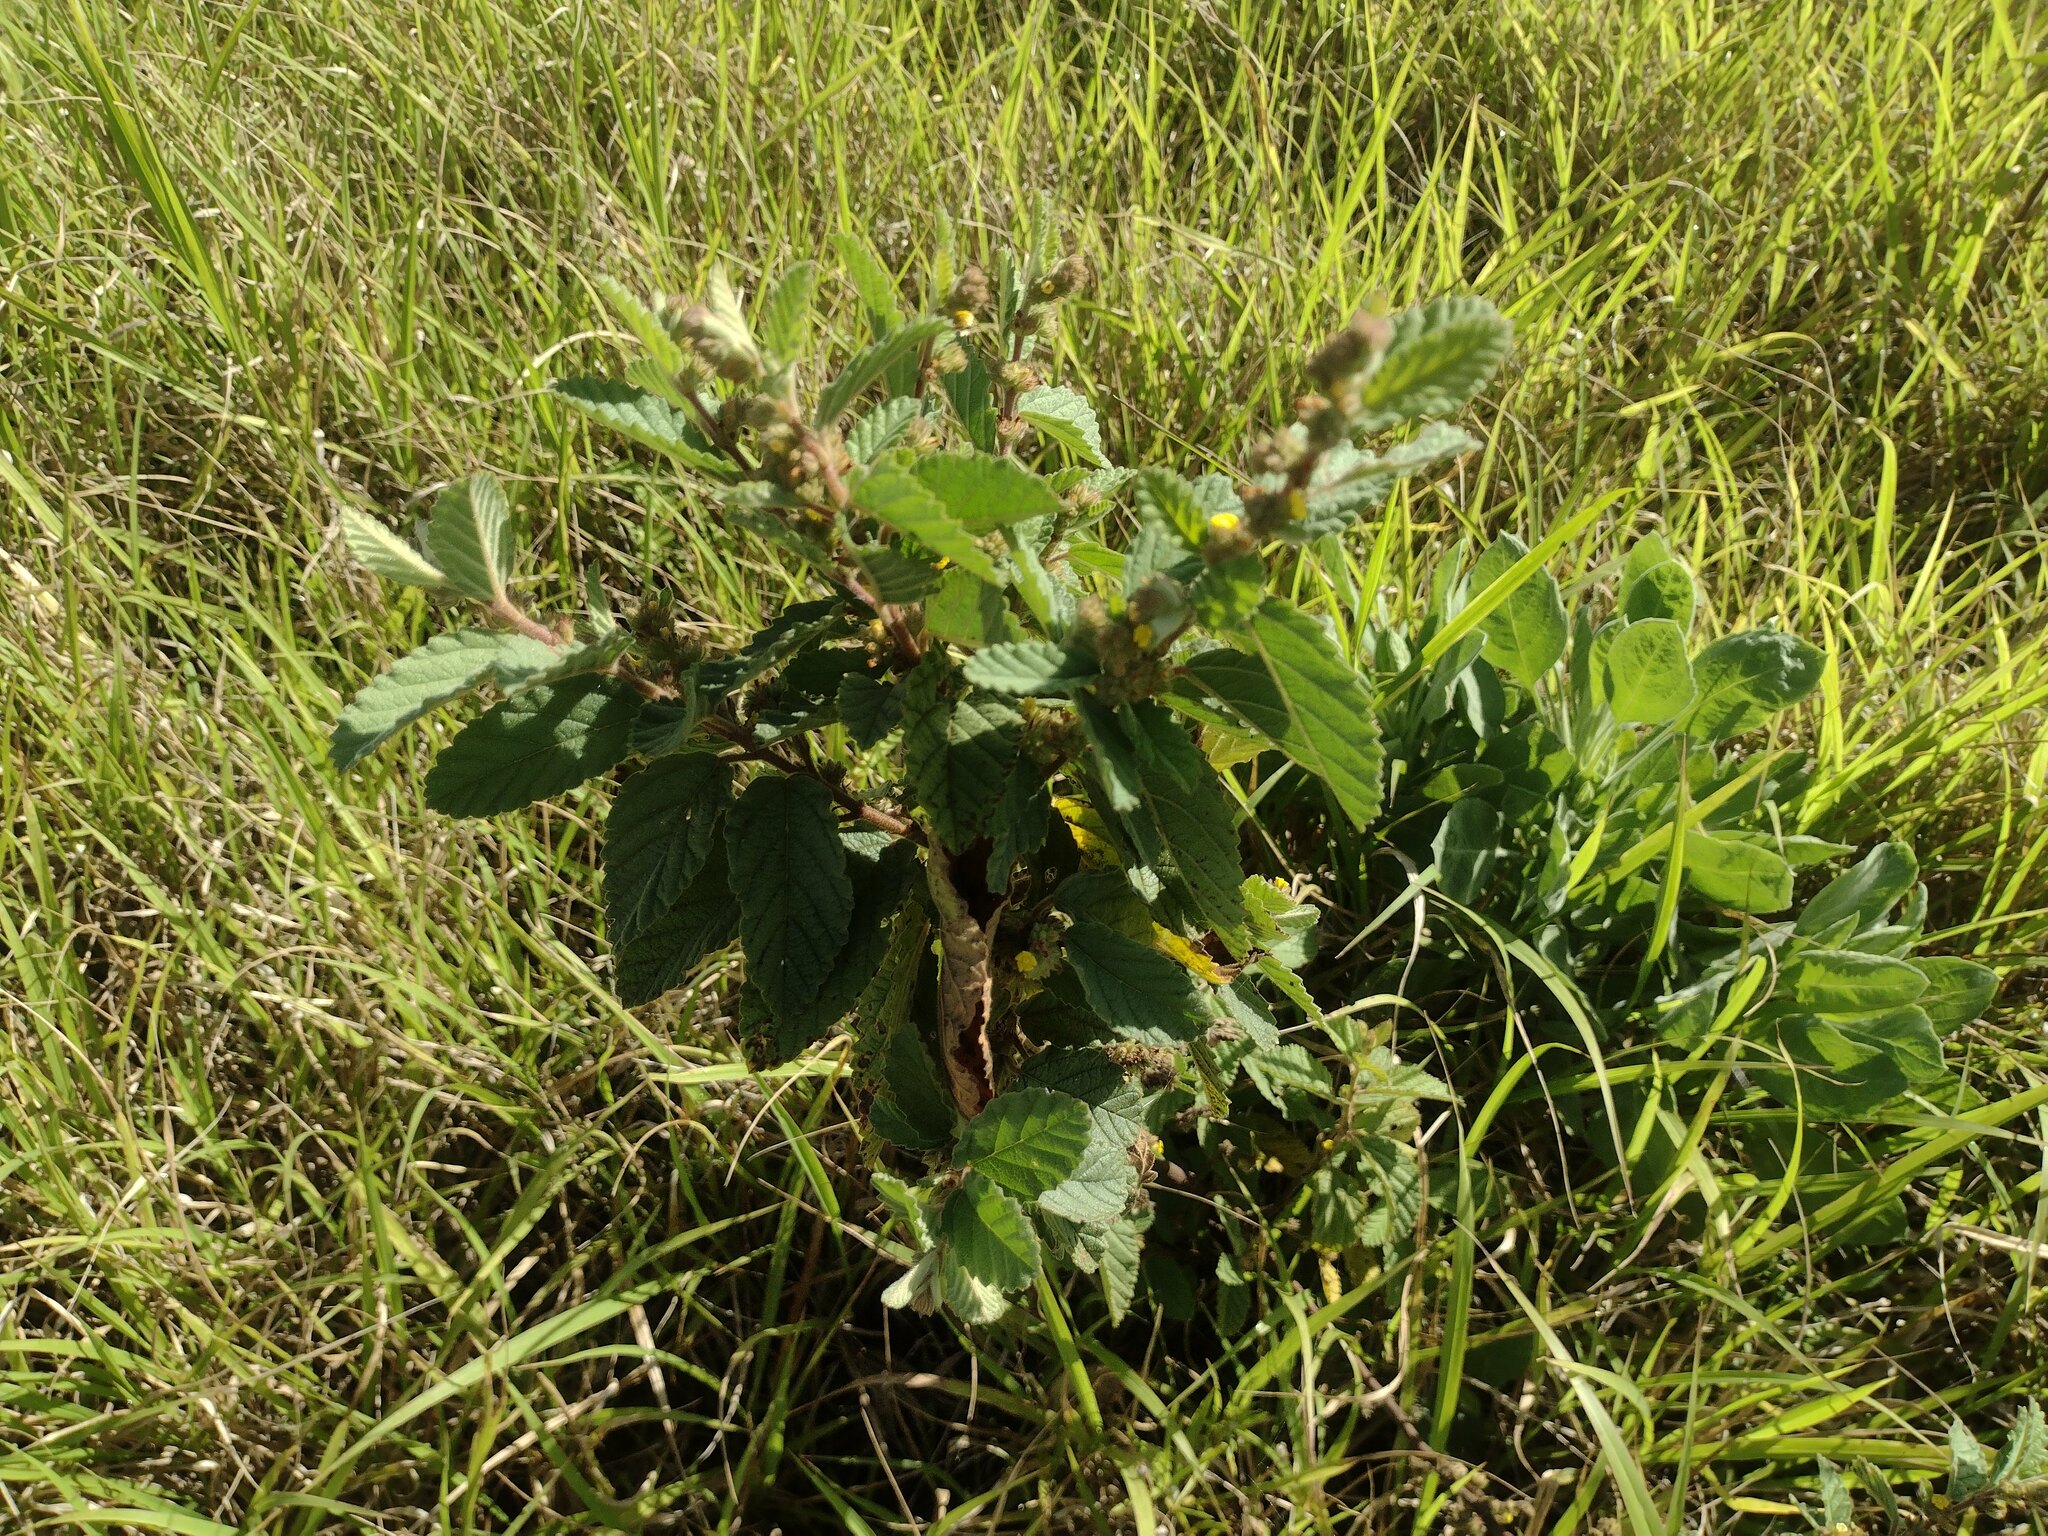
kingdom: Plantae
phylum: Tracheophyta
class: Magnoliopsida
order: Malvales
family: Malvaceae
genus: Waltheria
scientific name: Waltheria indica
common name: Leather-coat
